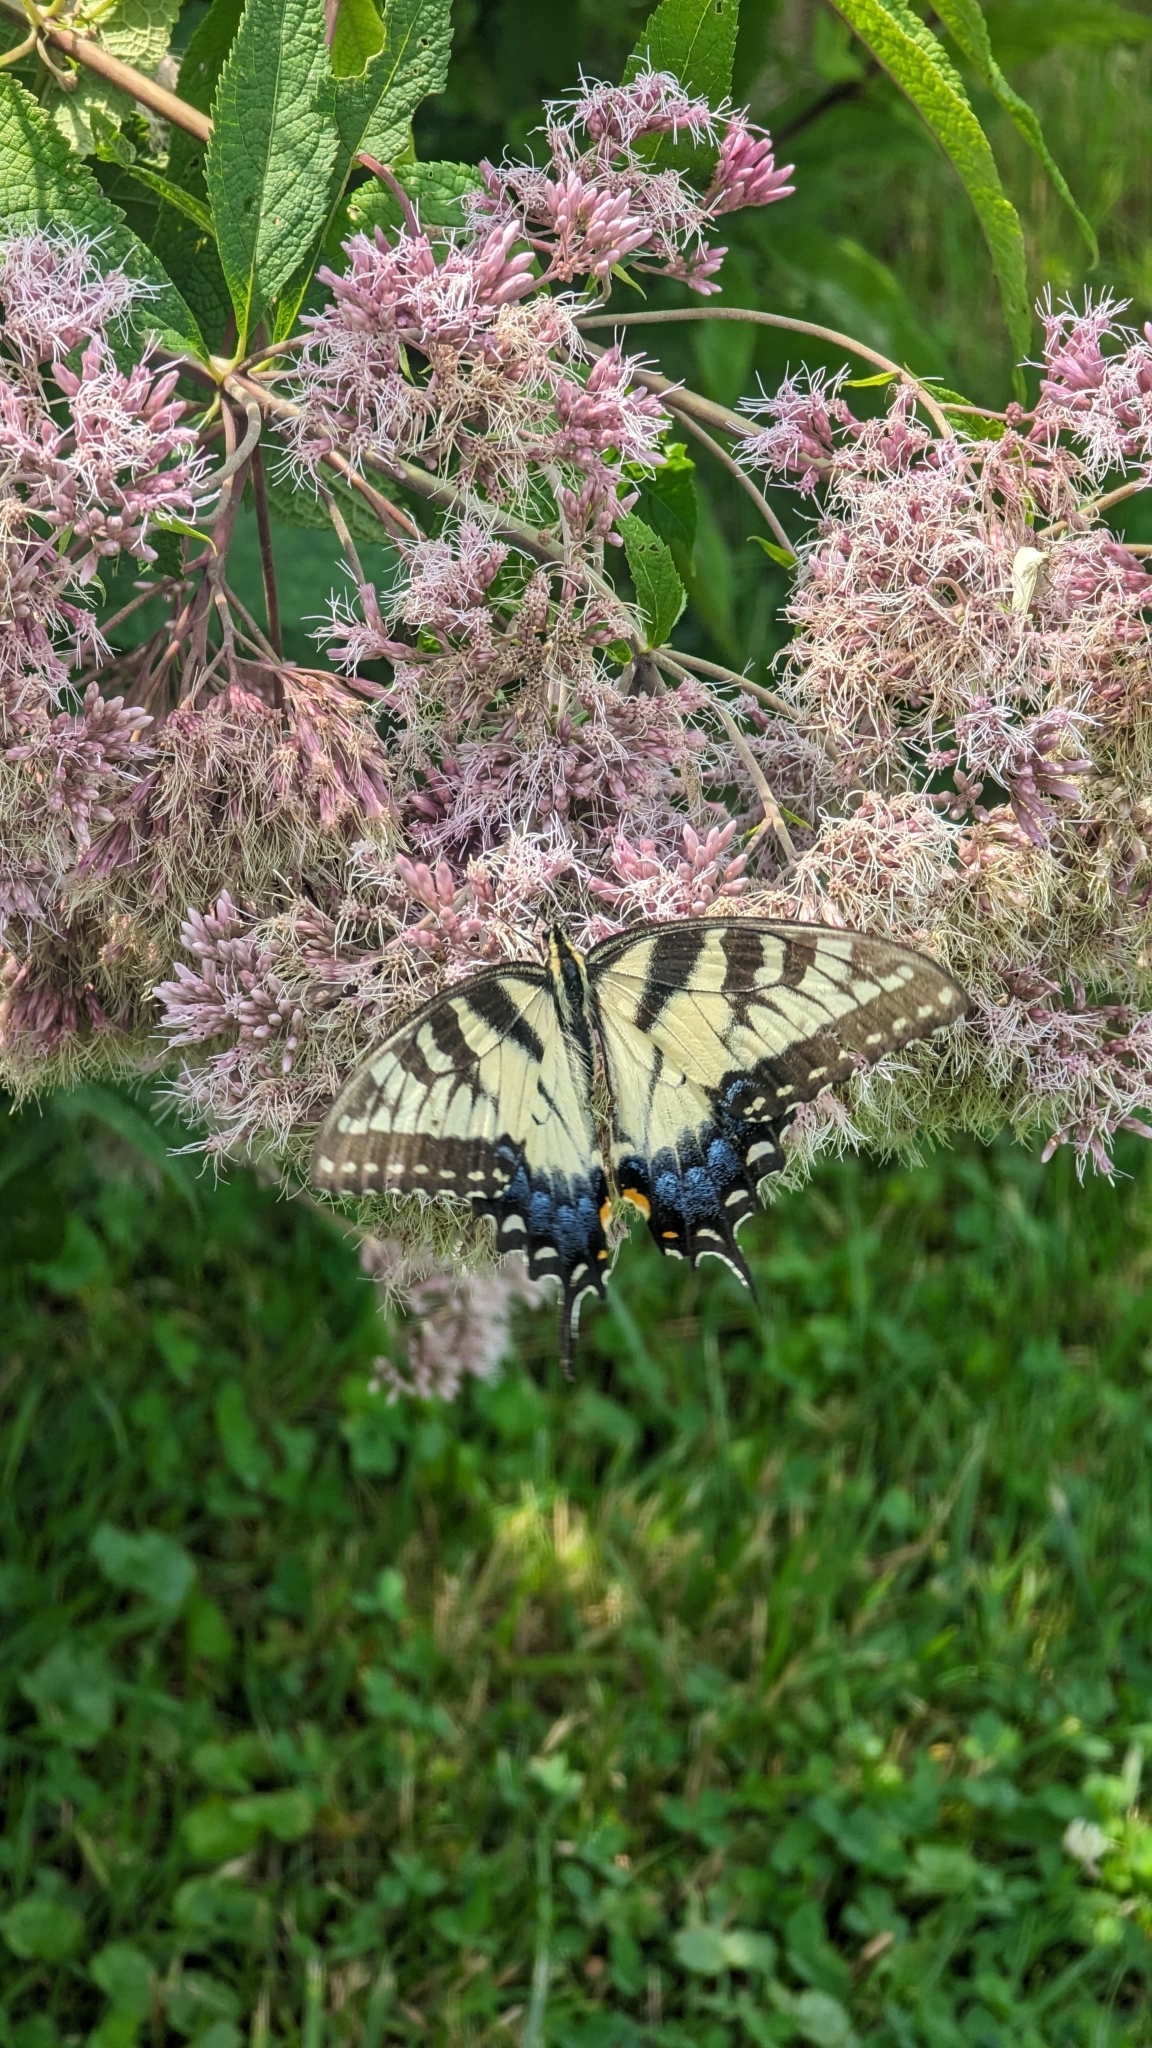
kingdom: Animalia
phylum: Arthropoda
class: Insecta
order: Lepidoptera
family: Papilionidae
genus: Papilio
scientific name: Papilio glaucus
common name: Tiger swallowtail
